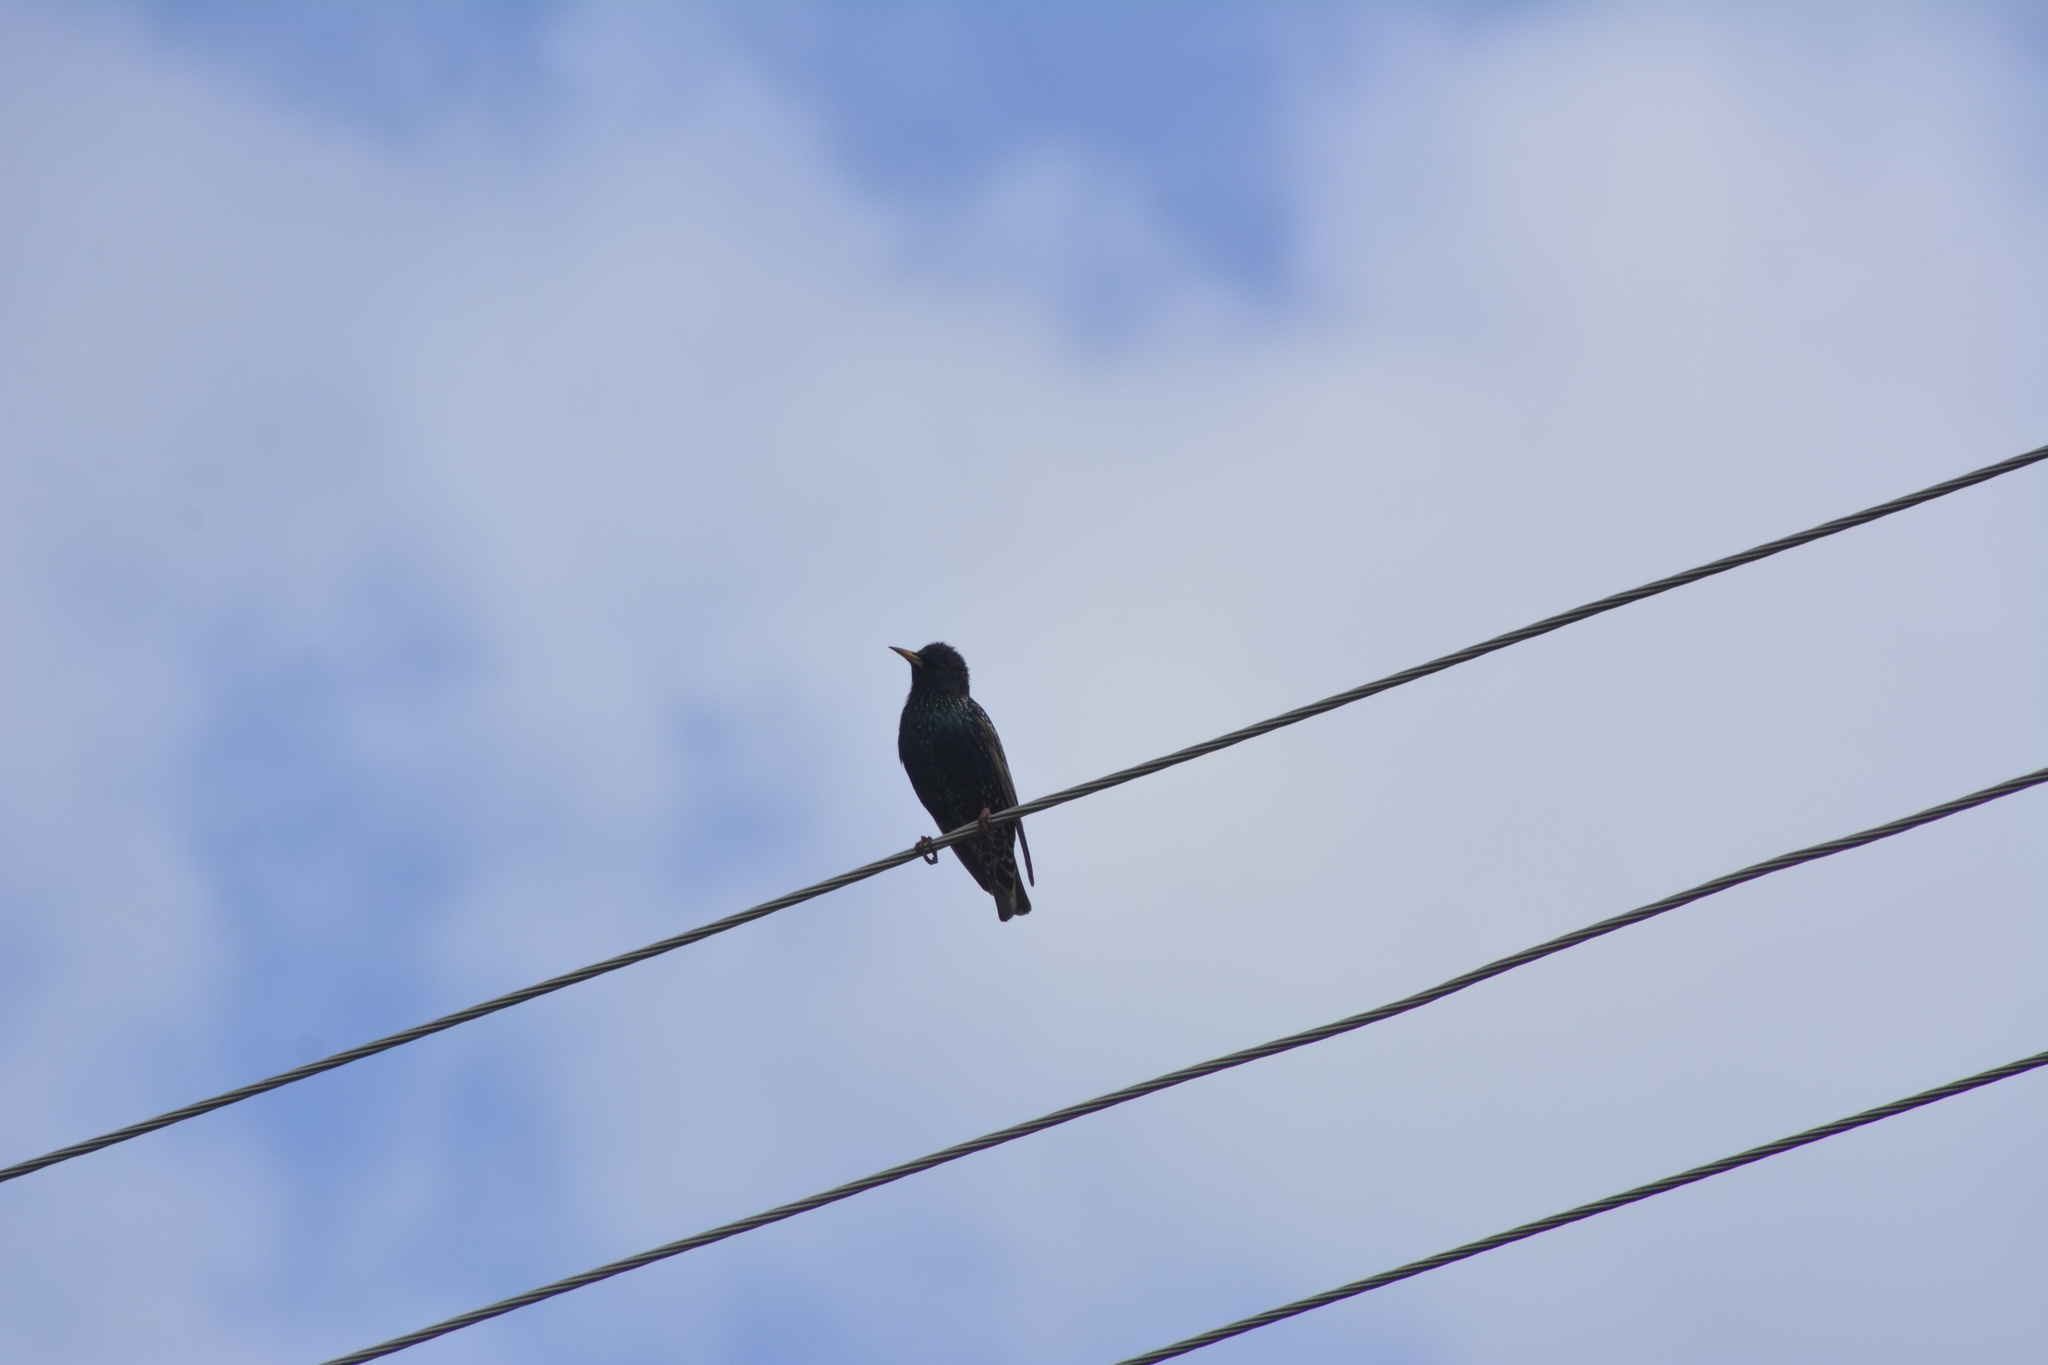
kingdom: Animalia
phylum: Chordata
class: Aves
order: Passeriformes
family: Sturnidae
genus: Sturnus
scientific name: Sturnus vulgaris
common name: Common starling
